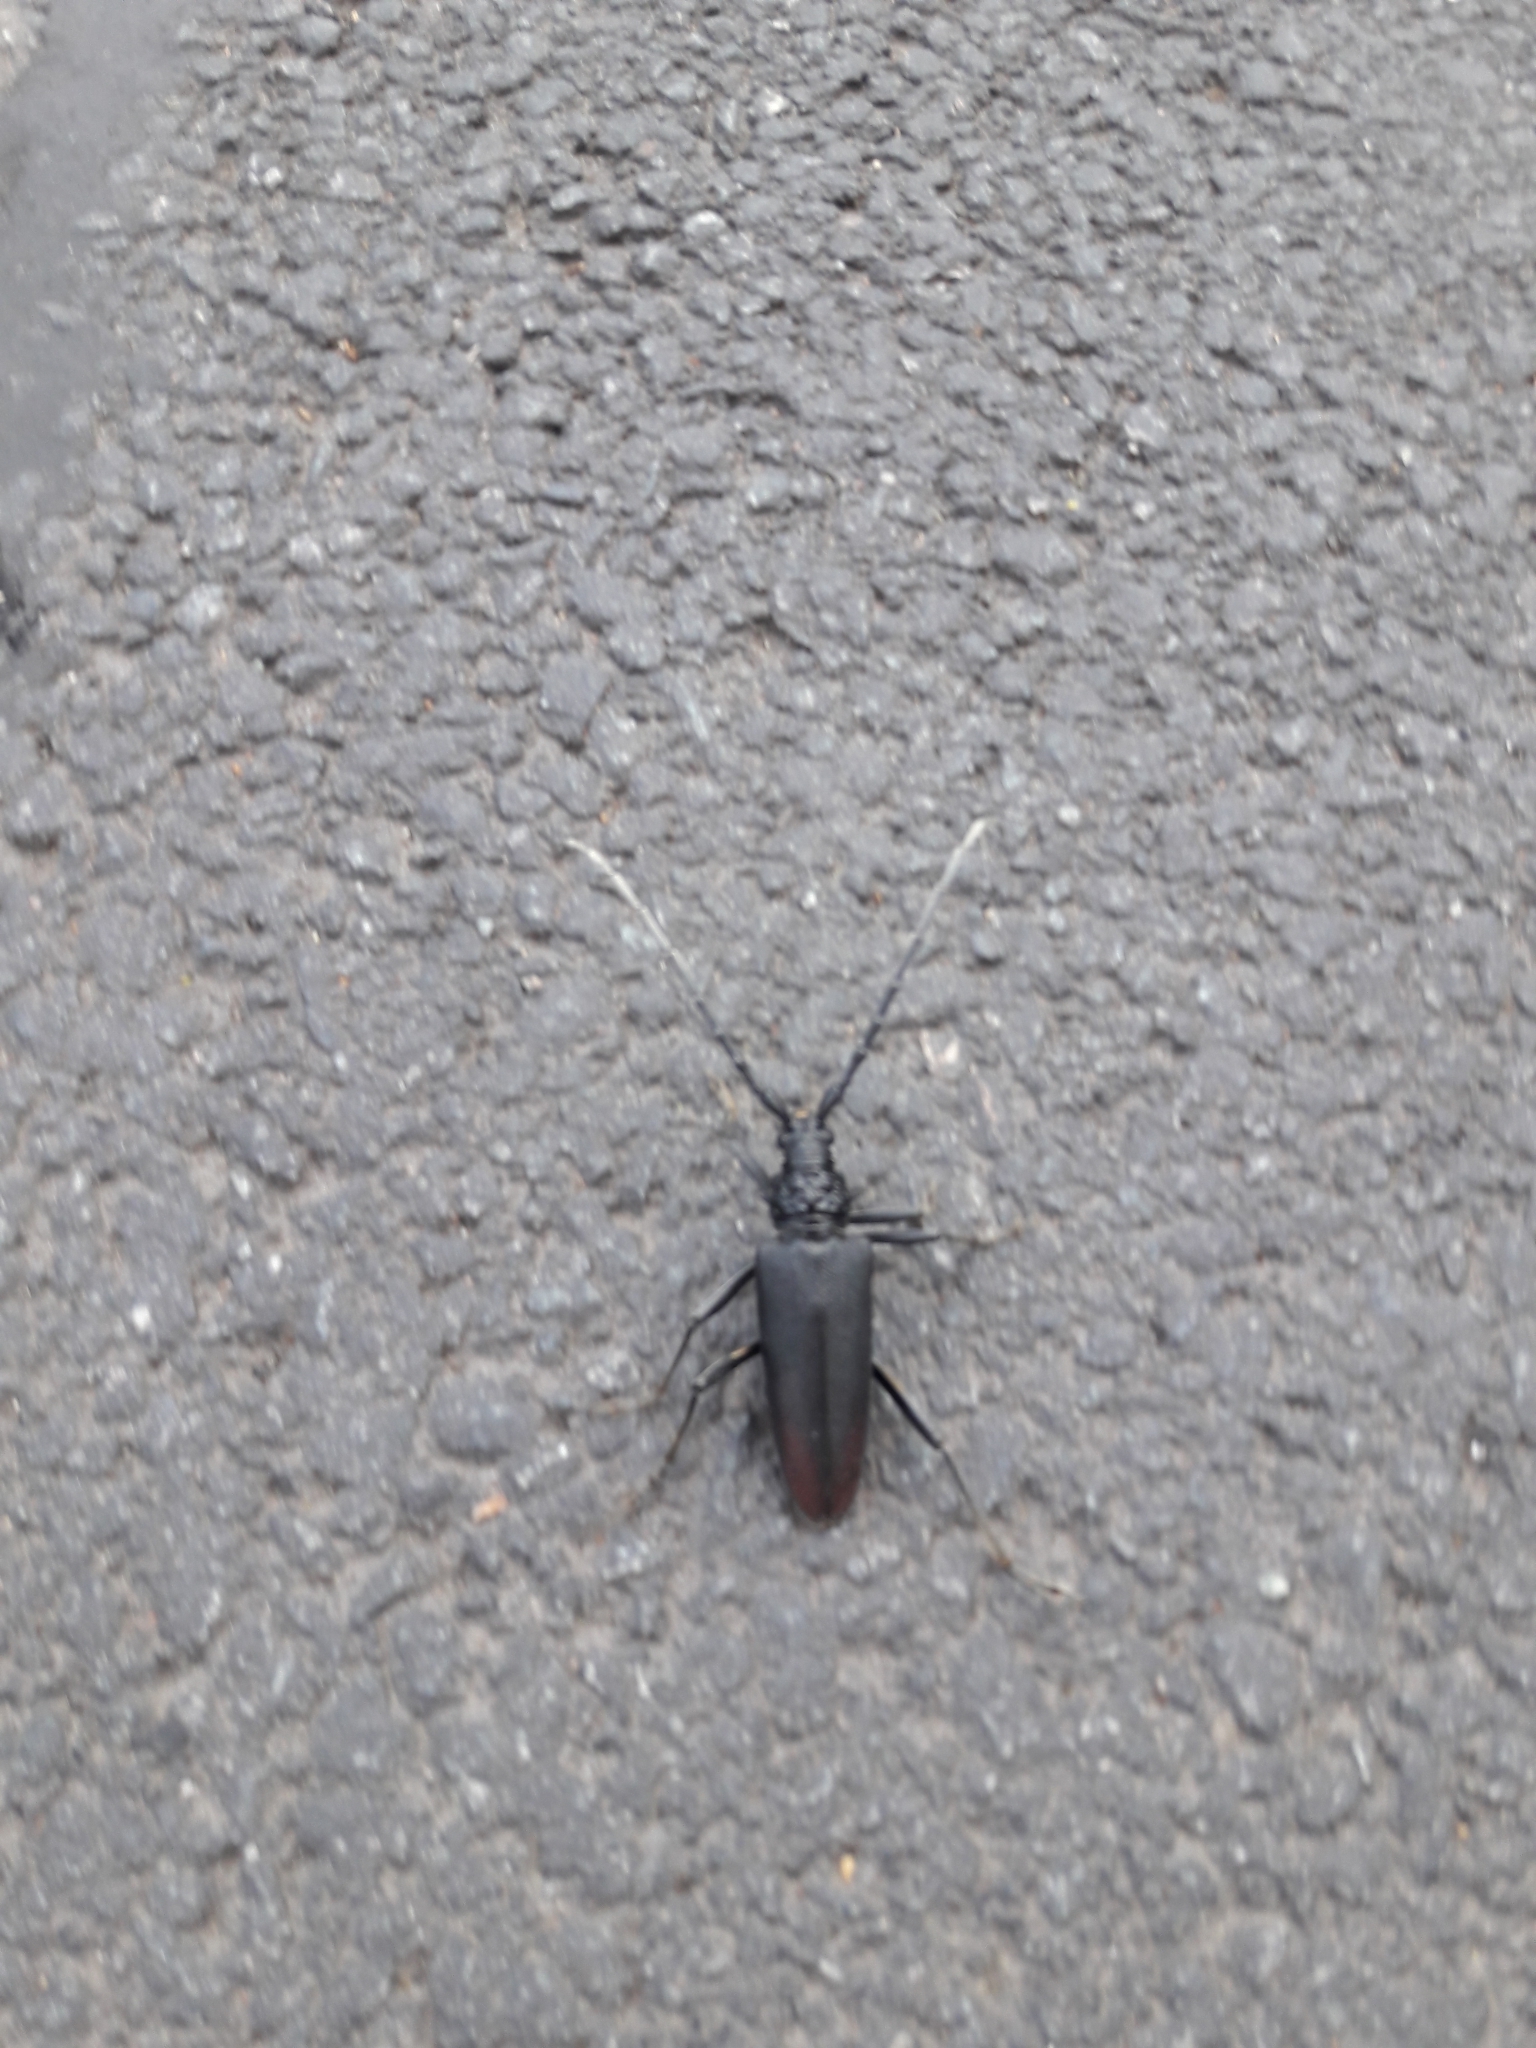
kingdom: Animalia
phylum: Arthropoda
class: Insecta
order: Coleoptera
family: Cerambycidae
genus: Cerambyx
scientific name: Cerambyx cerdo
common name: Cerambyx longicorn
